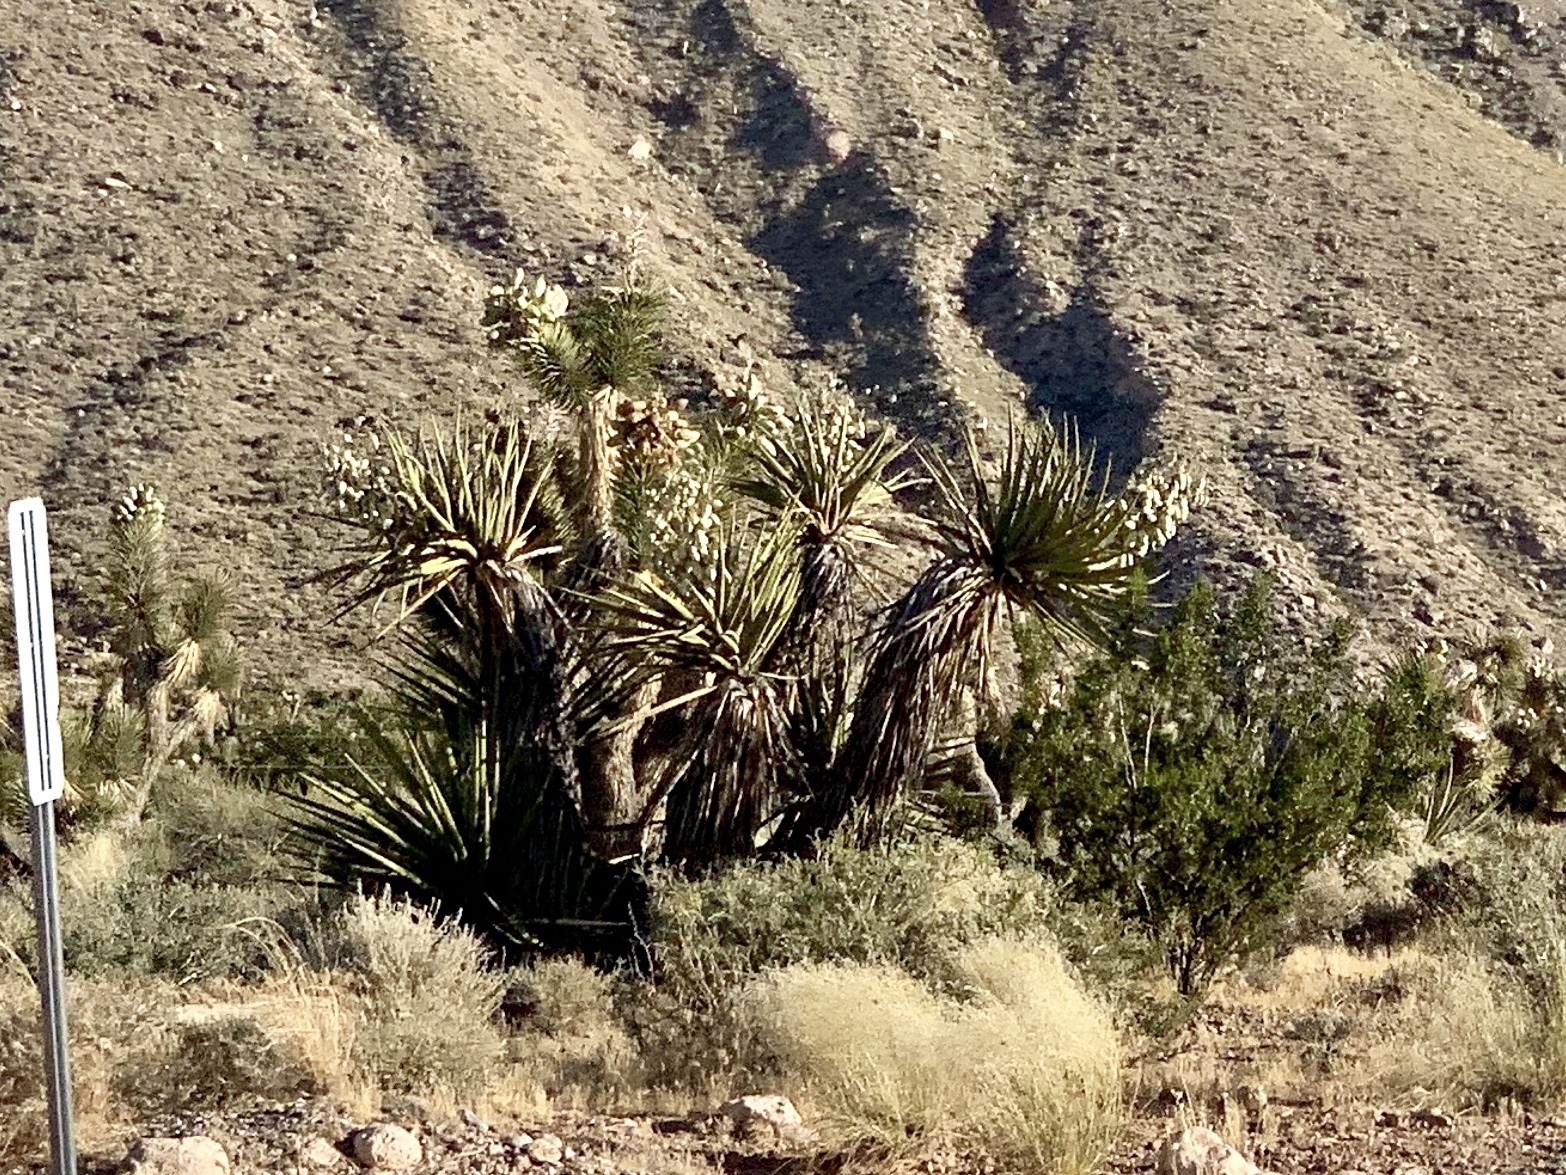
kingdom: Plantae
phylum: Tracheophyta
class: Liliopsida
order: Asparagales
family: Asparagaceae
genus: Yucca
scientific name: Yucca schidigera
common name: Mojave yucca
